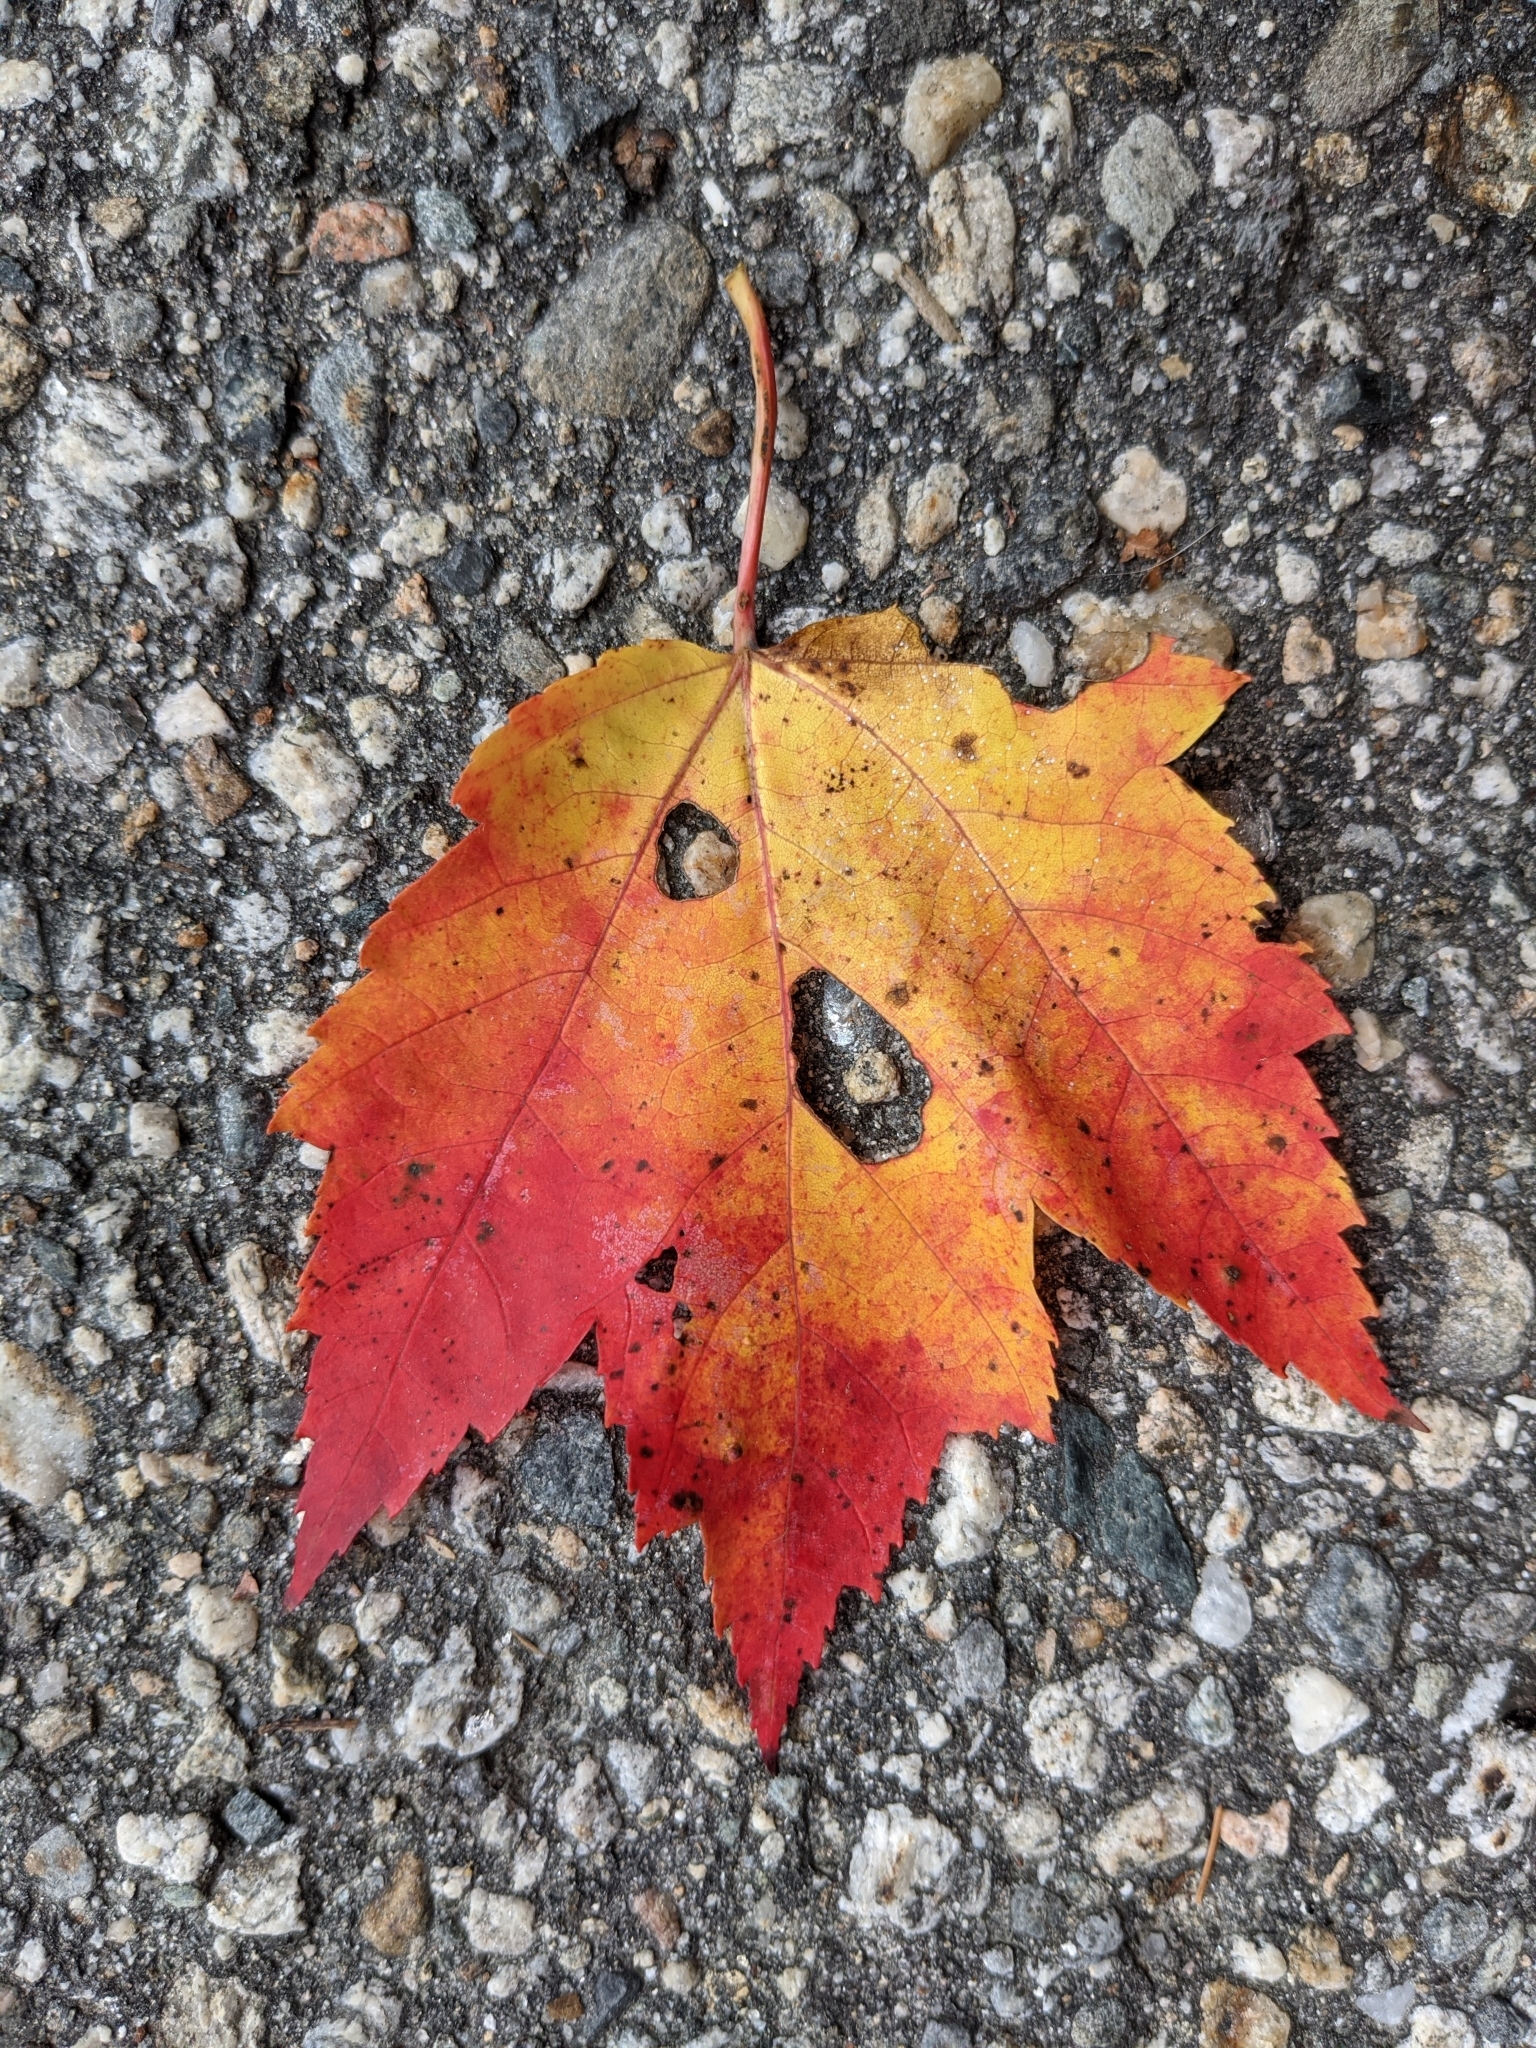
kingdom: Plantae
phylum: Tracheophyta
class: Magnoliopsida
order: Sapindales
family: Sapindaceae
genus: Acer
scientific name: Acer rubrum
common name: Red maple
